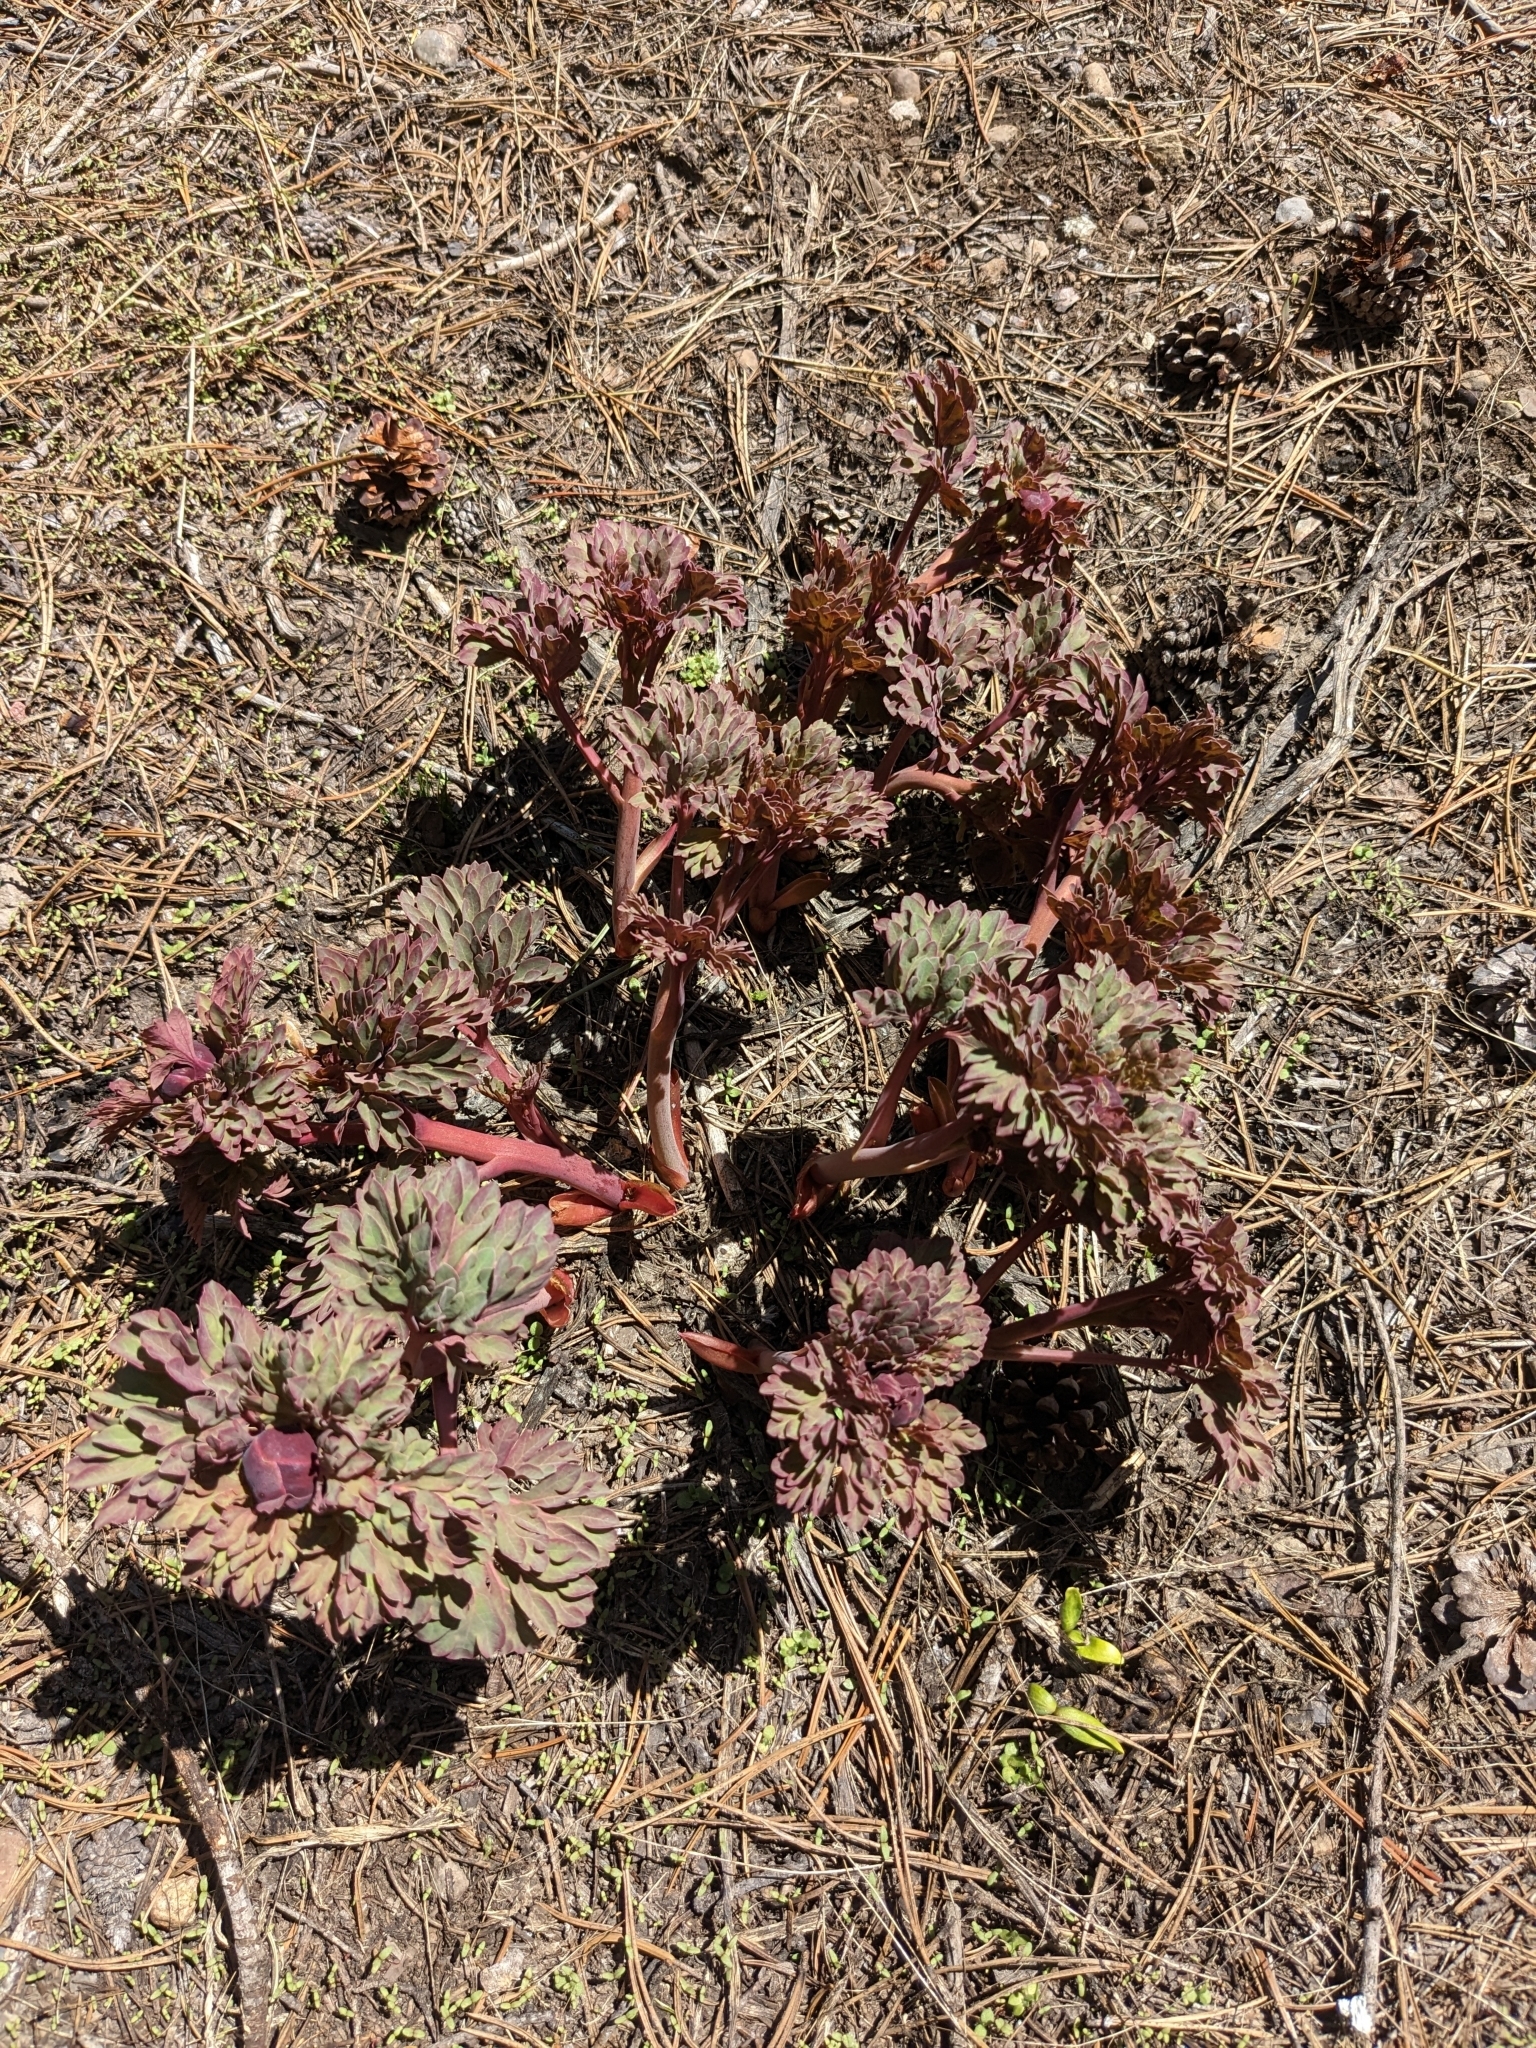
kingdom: Plantae
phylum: Tracheophyta
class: Magnoliopsida
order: Saxifragales
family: Paeoniaceae
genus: Paeonia
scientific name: Paeonia brownii
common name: Brown's peony
